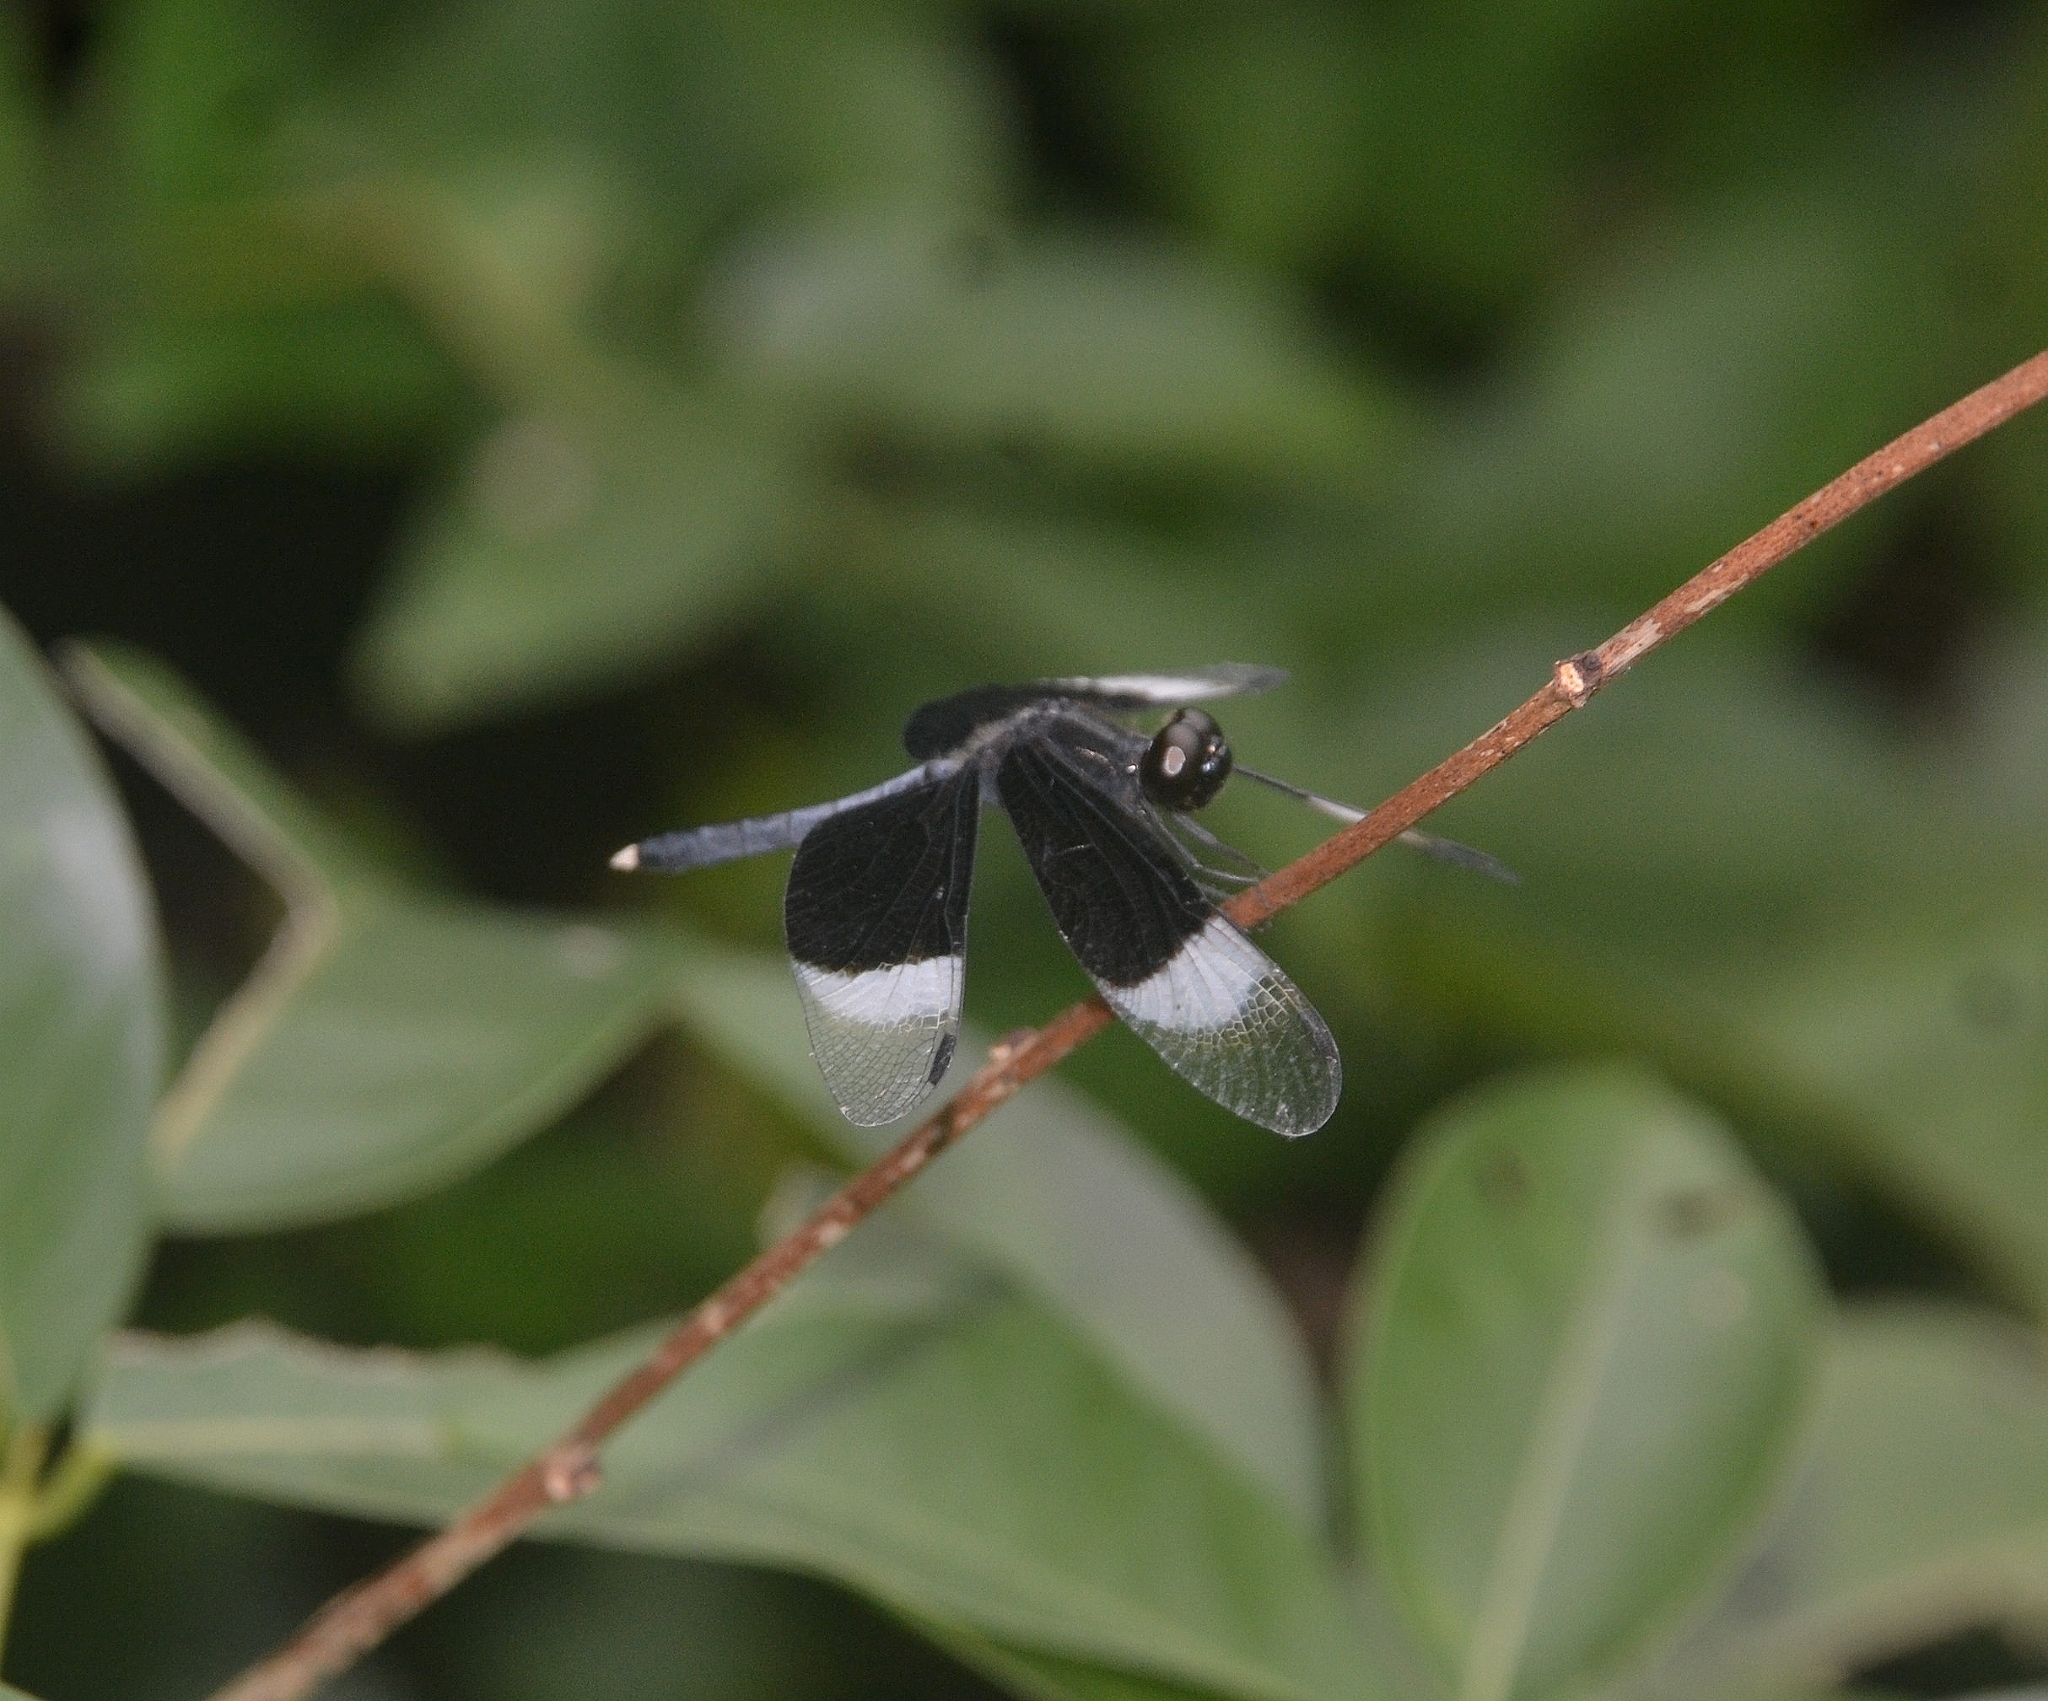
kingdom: Animalia
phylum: Arthropoda
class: Insecta
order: Odonata
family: Libellulidae
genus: Neurothemis
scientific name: Neurothemis tullia
